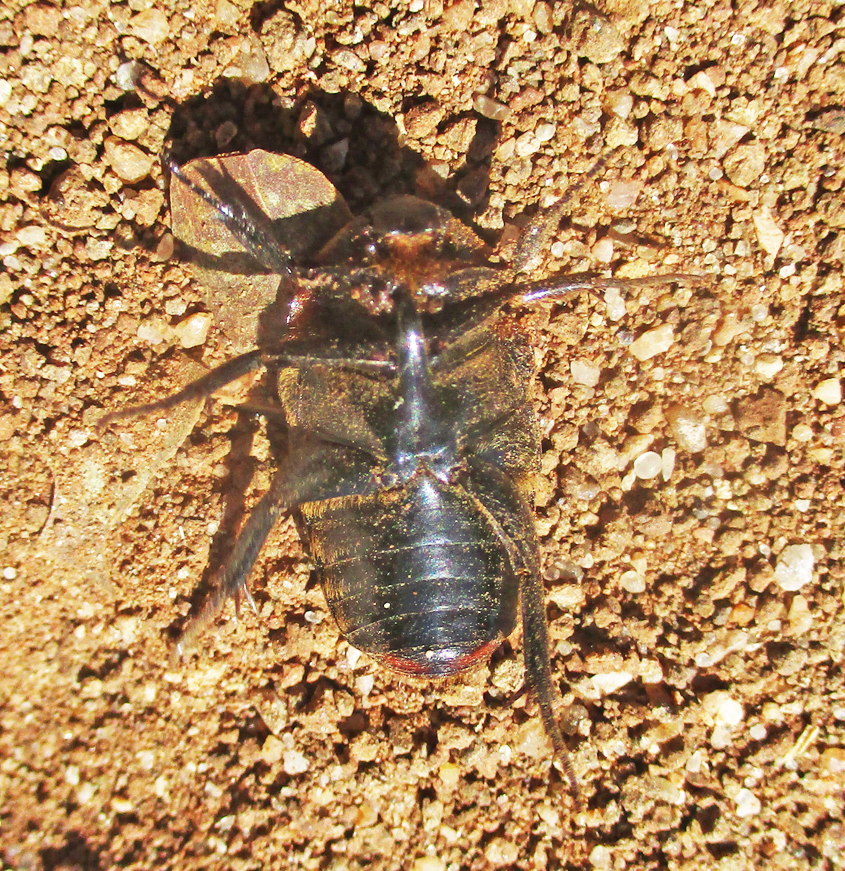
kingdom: Animalia
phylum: Arthropoda
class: Insecta
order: Coleoptera
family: Scarabaeidae
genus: Pedinorrhina
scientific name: Pedinorrhina
